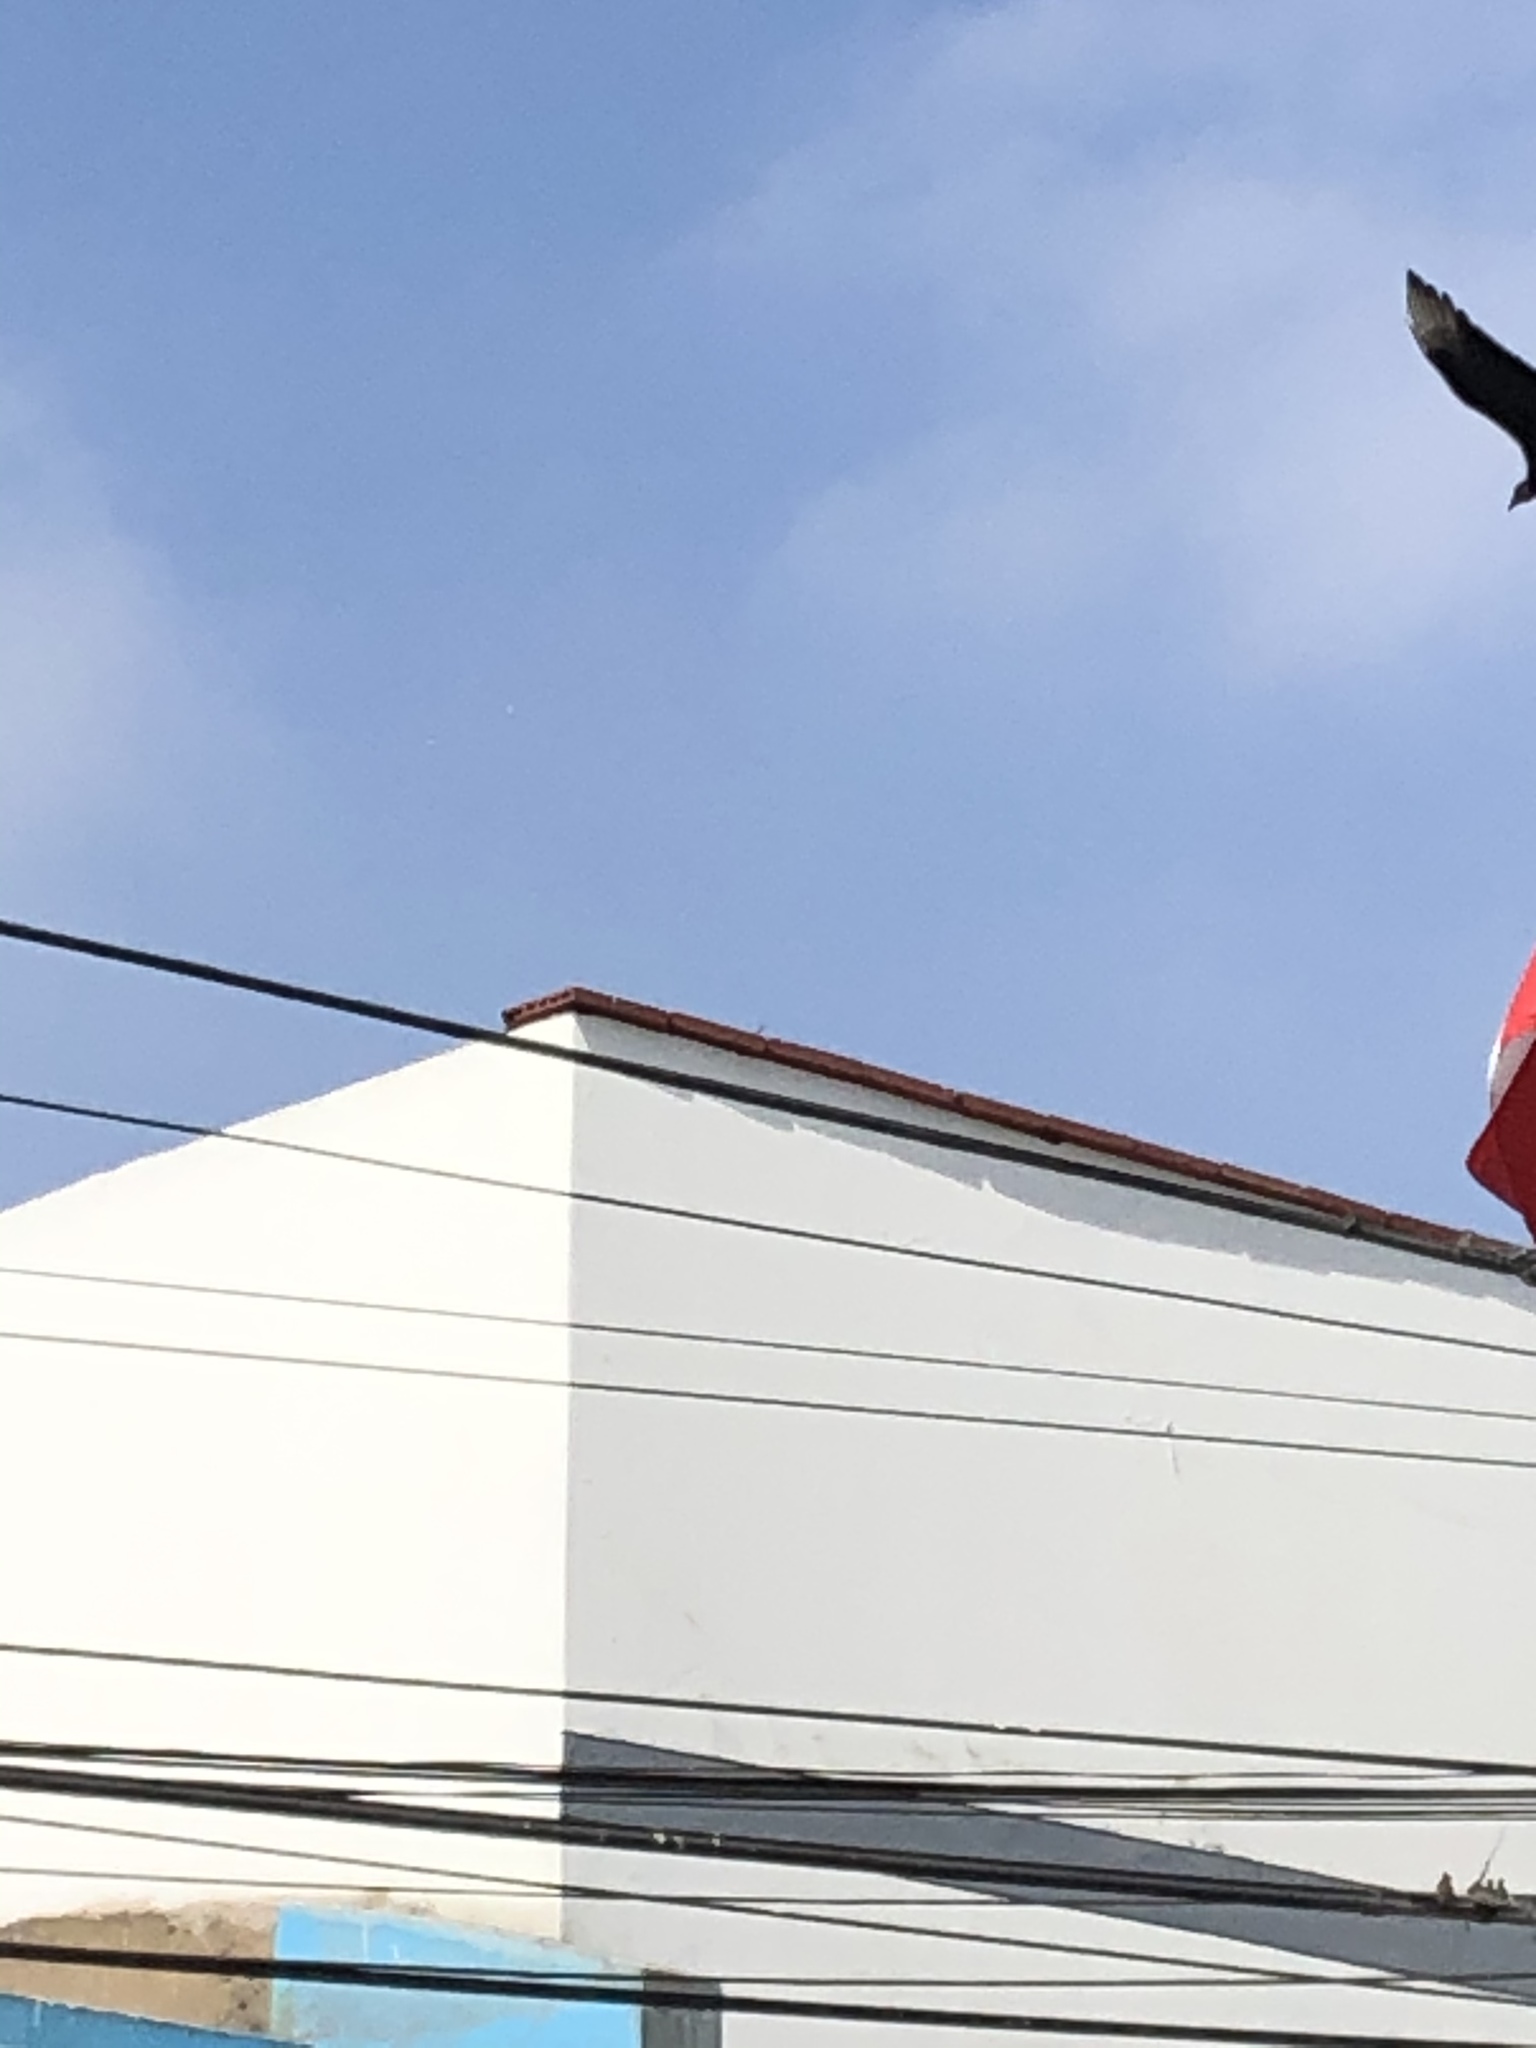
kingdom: Animalia
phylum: Chordata
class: Aves
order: Accipitriformes
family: Cathartidae
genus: Coragyps
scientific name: Coragyps atratus
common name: Black vulture
